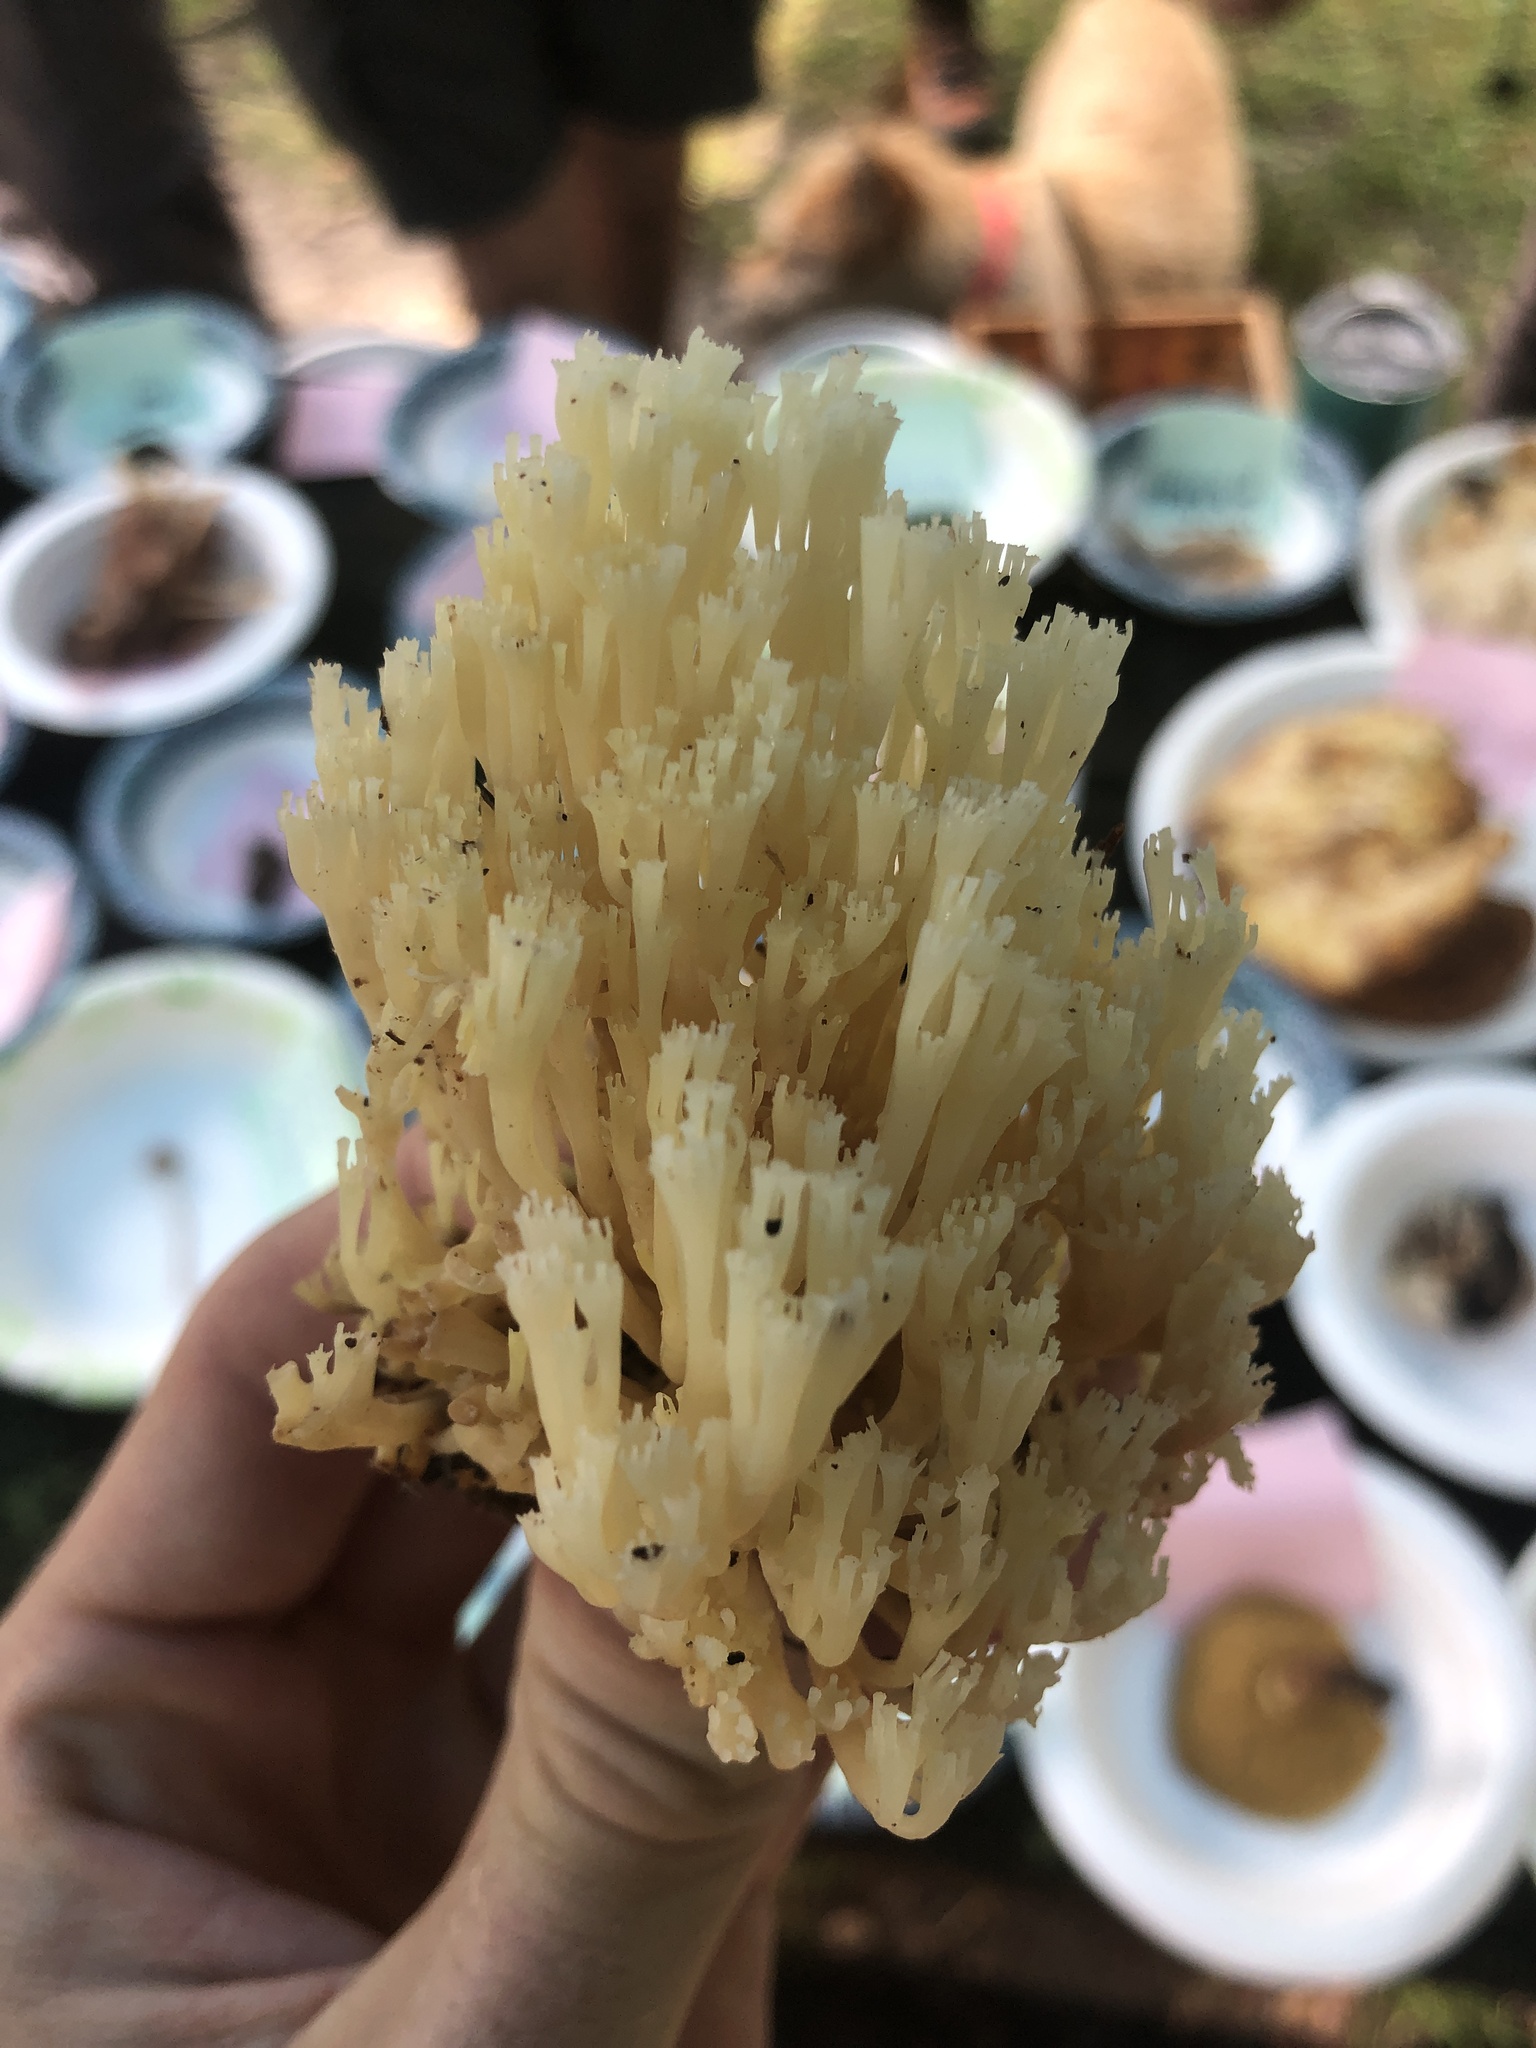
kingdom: Fungi
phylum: Basidiomycota
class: Agaricomycetes
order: Russulales
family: Auriscalpiaceae
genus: Artomyces
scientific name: Artomyces pyxidatus
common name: Crown-tipped coral fungus
